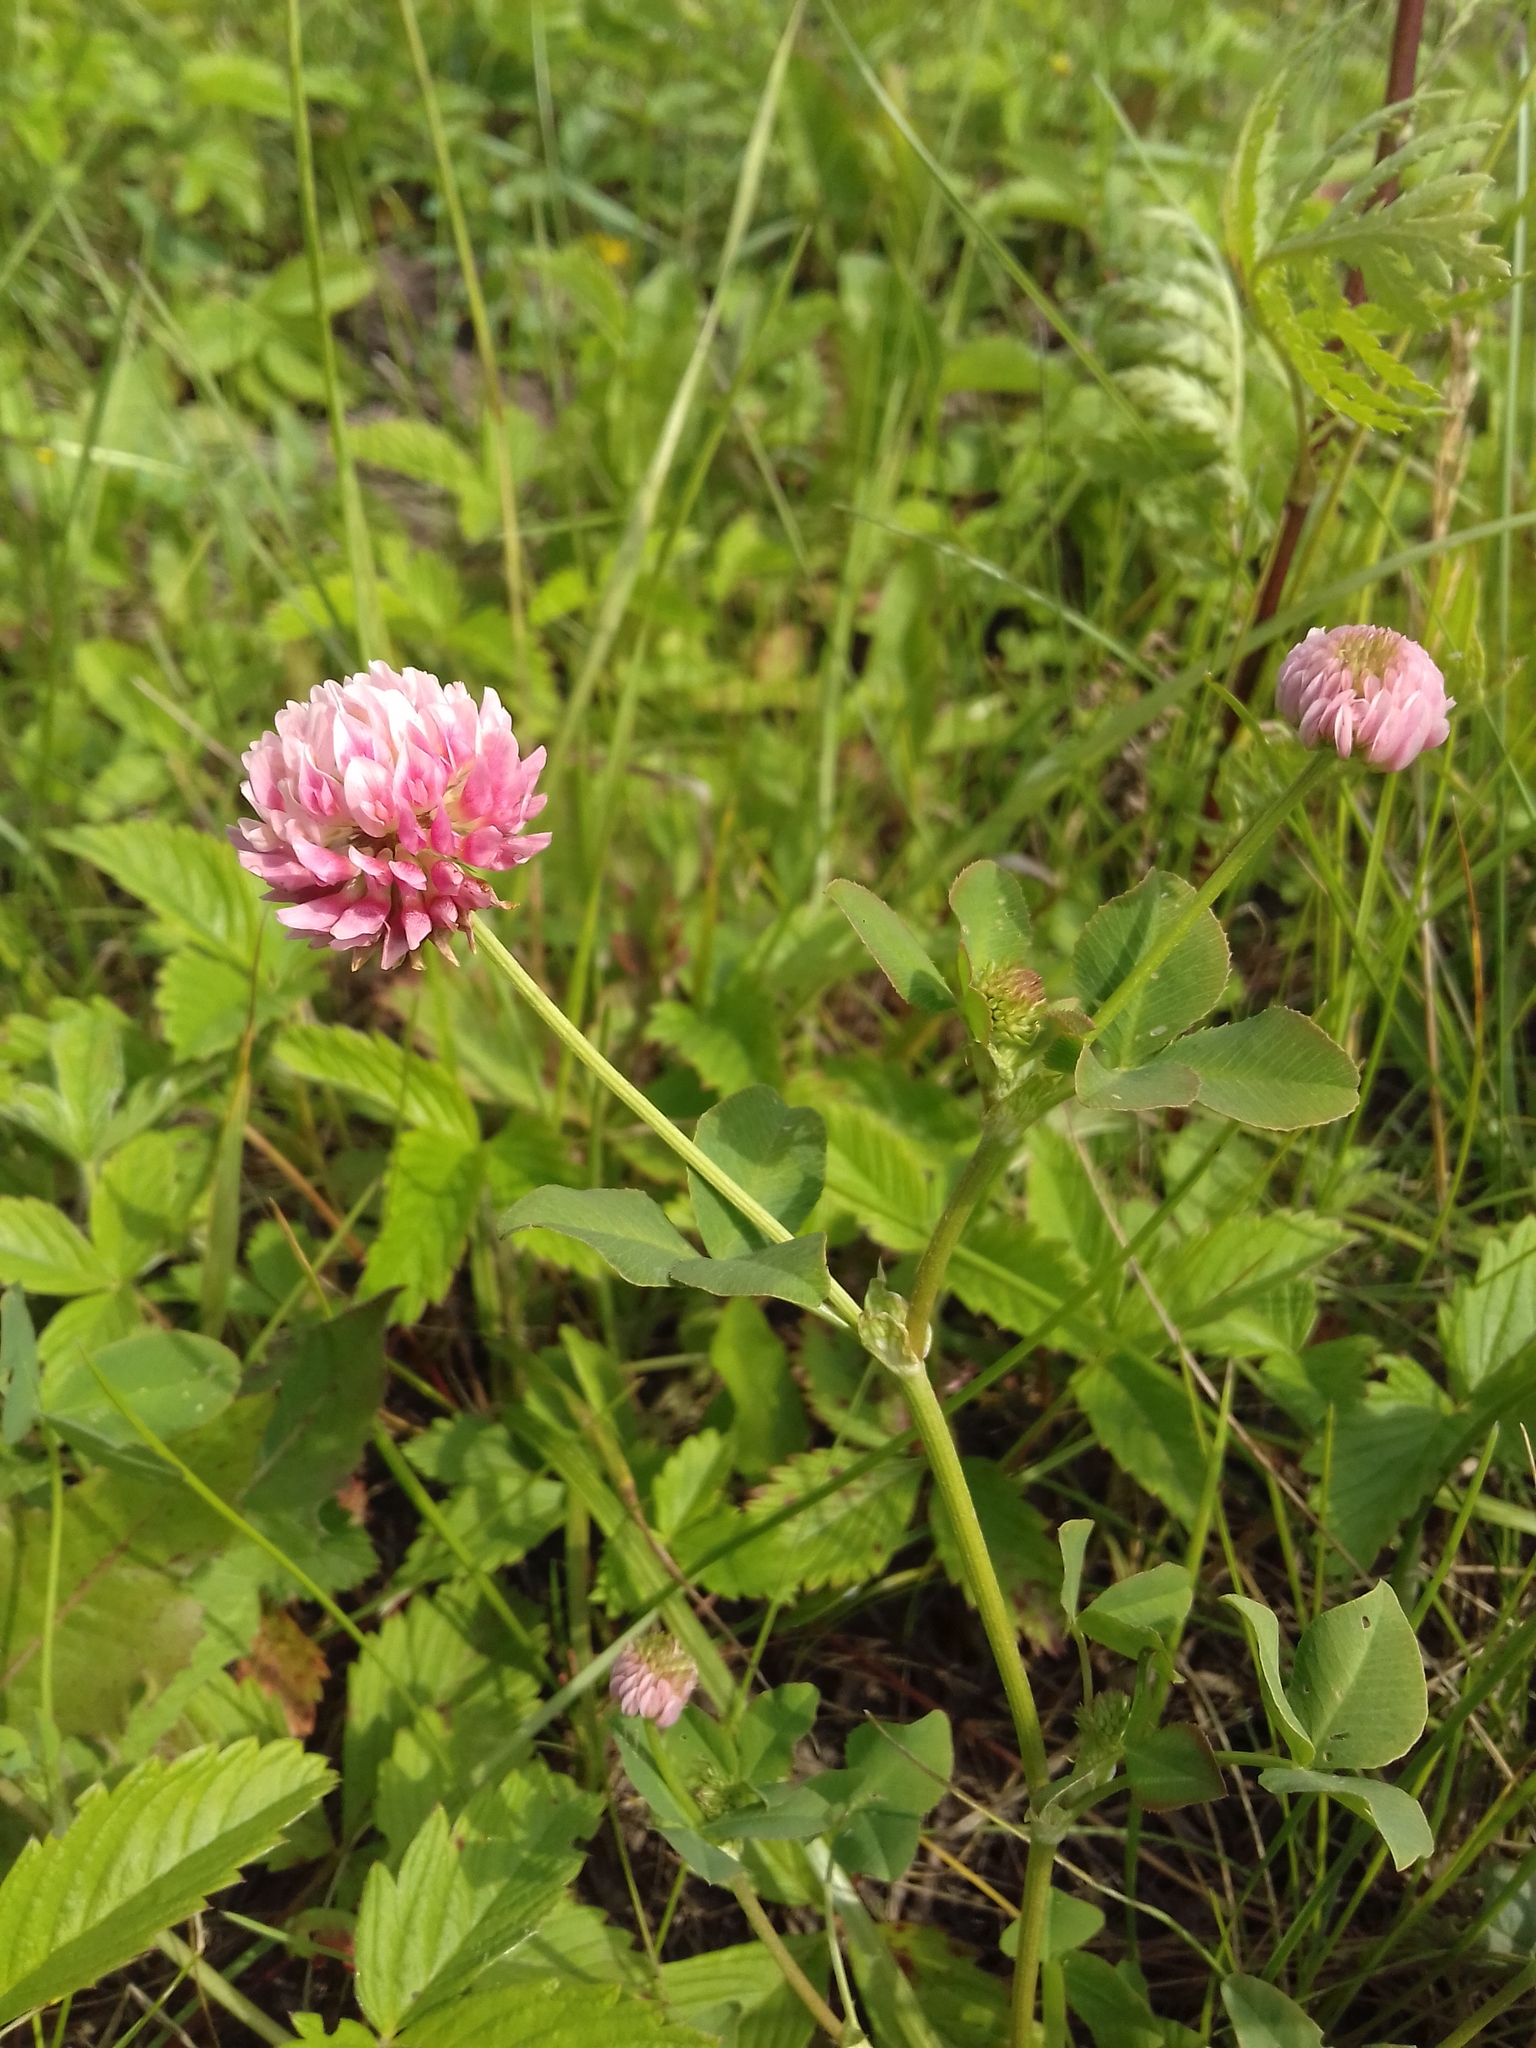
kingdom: Plantae
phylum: Tracheophyta
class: Magnoliopsida
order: Fabales
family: Fabaceae
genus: Trifolium
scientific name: Trifolium hybridum
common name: Alsike clover
